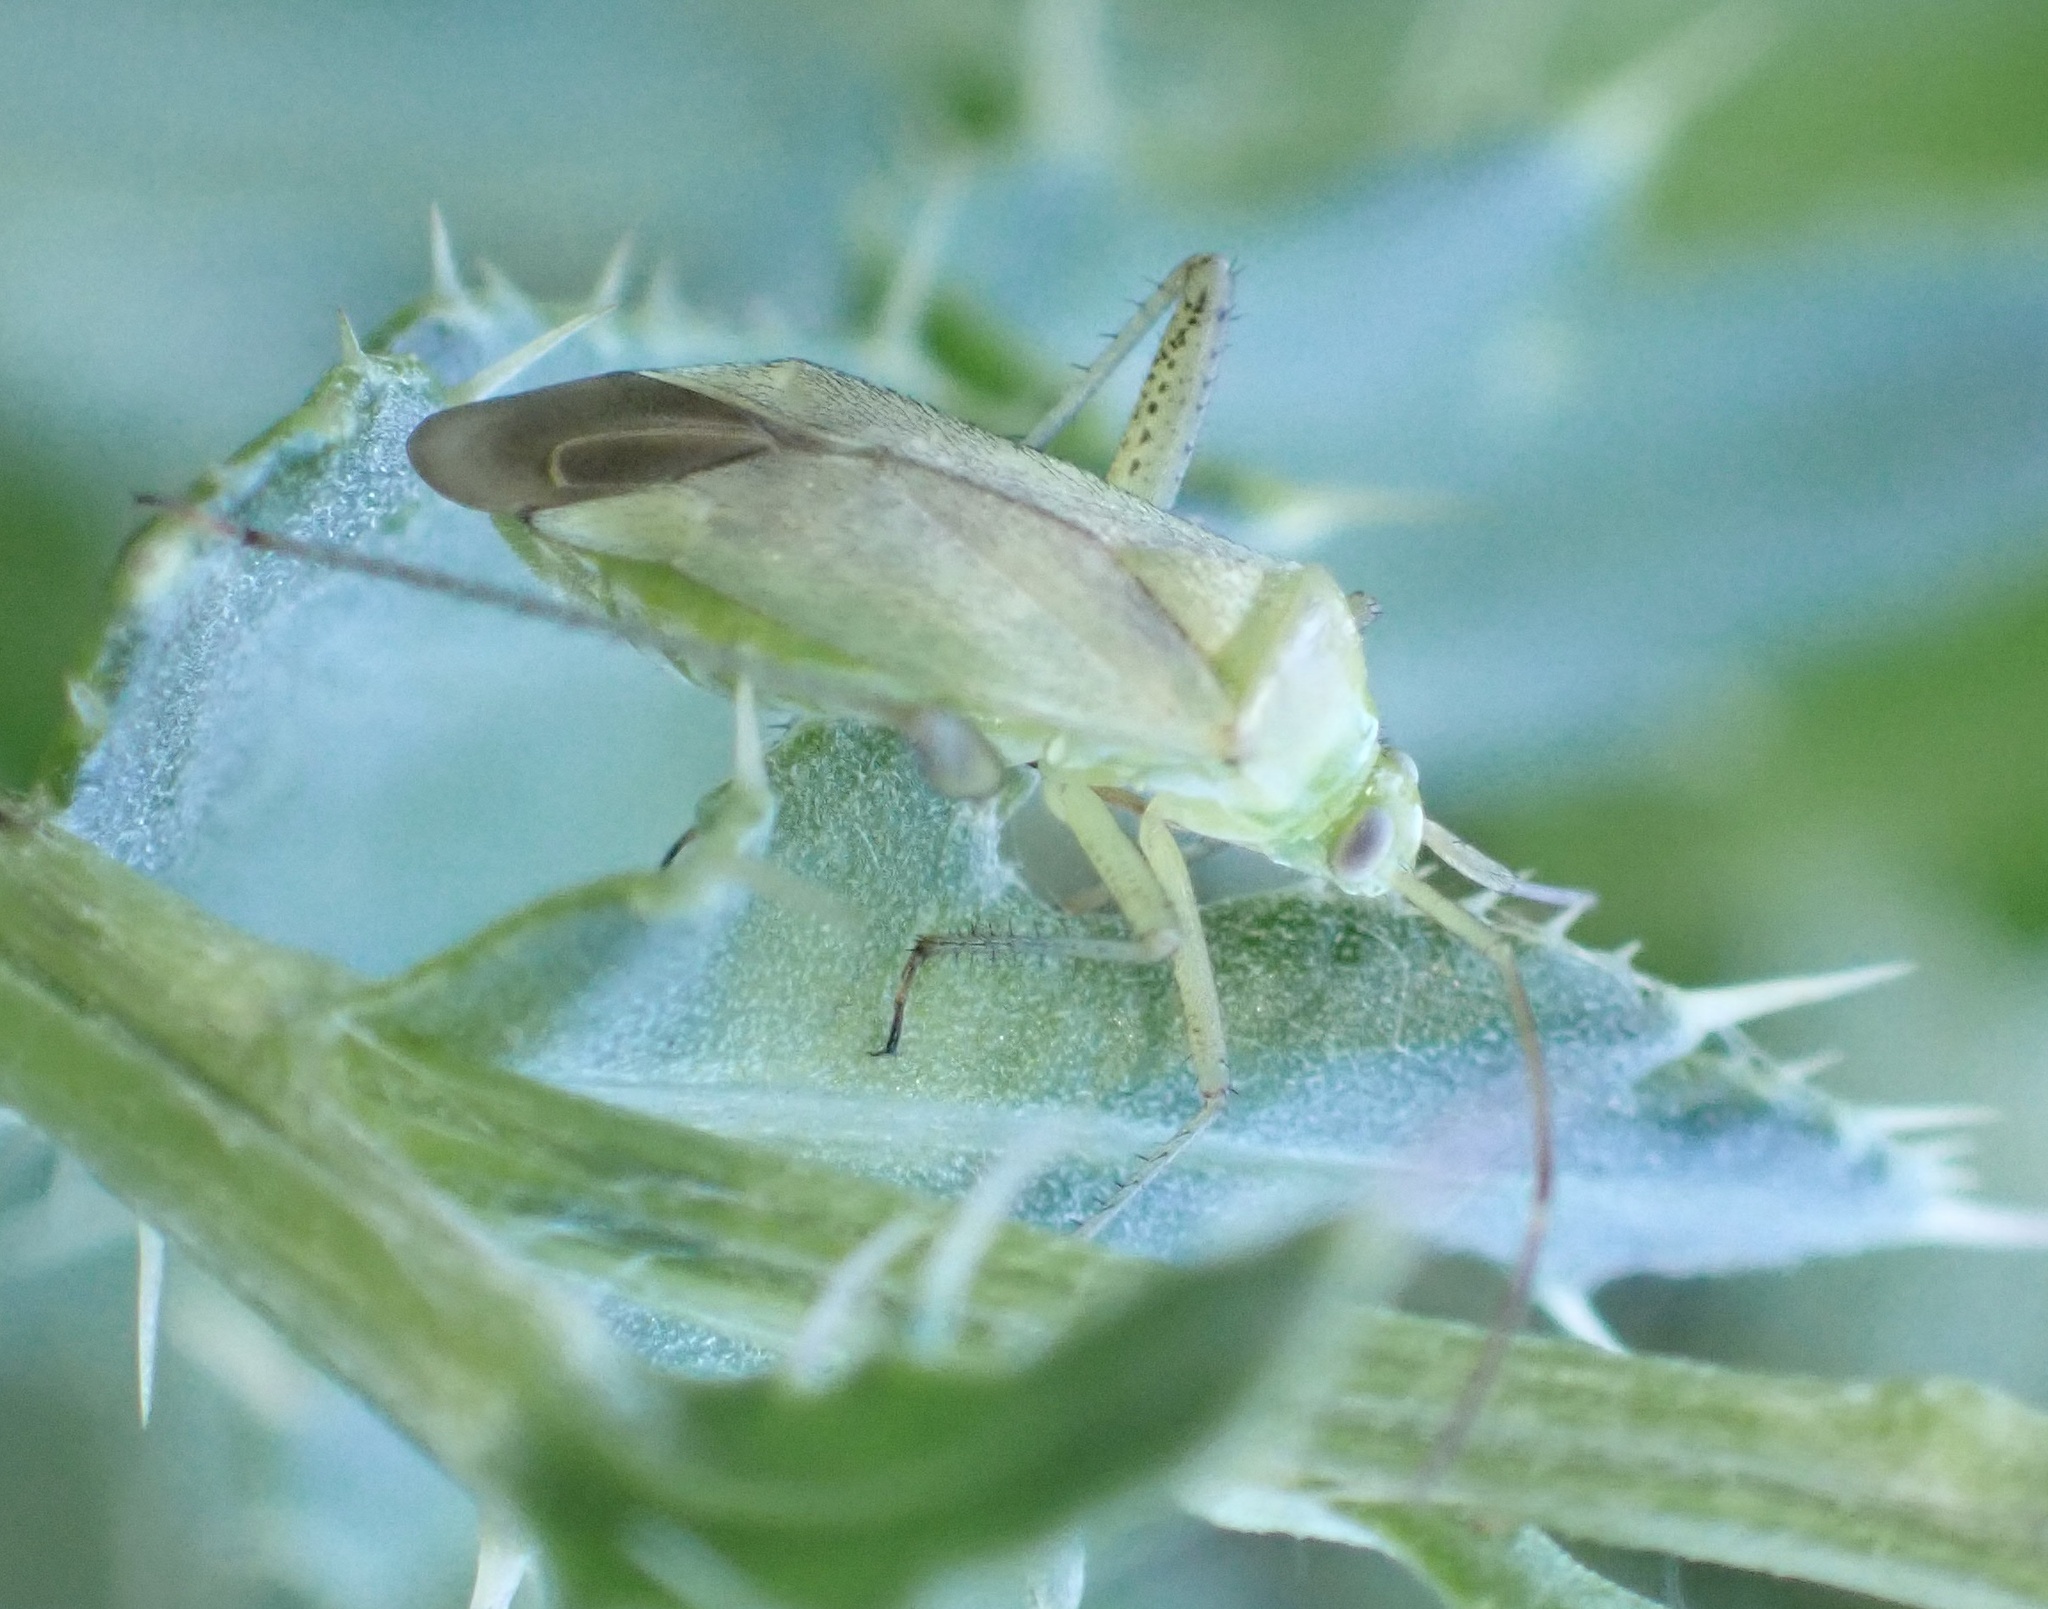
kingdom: Animalia
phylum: Arthropoda
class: Insecta
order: Hemiptera
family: Miridae
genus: Adelphocoris
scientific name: Adelphocoris quadripunctatus
